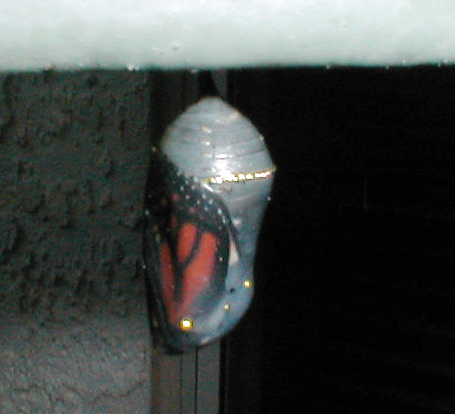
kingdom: Animalia
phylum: Arthropoda
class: Insecta
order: Lepidoptera
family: Nymphalidae
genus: Danaus
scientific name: Danaus plexippus
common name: Monarch
